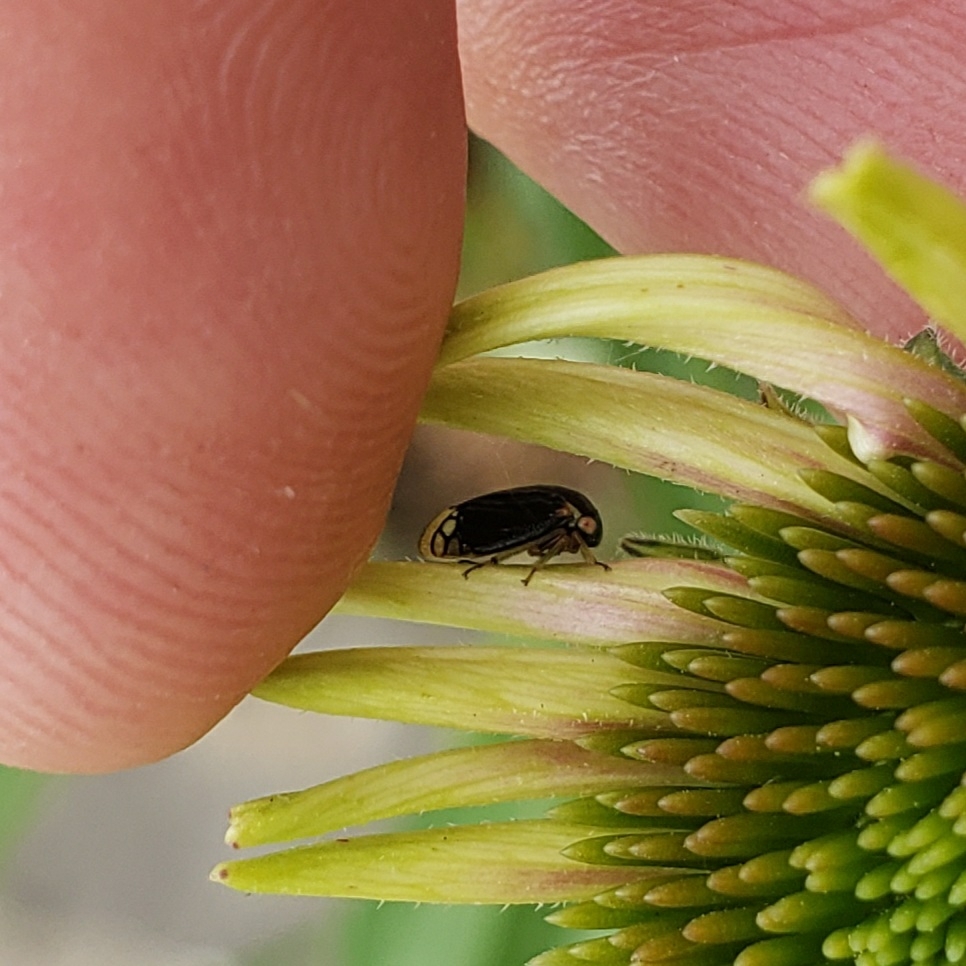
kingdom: Animalia
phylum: Arthropoda
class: Insecta
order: Hemiptera
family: Membracidae
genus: Acutalis
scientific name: Acutalis tartarea
